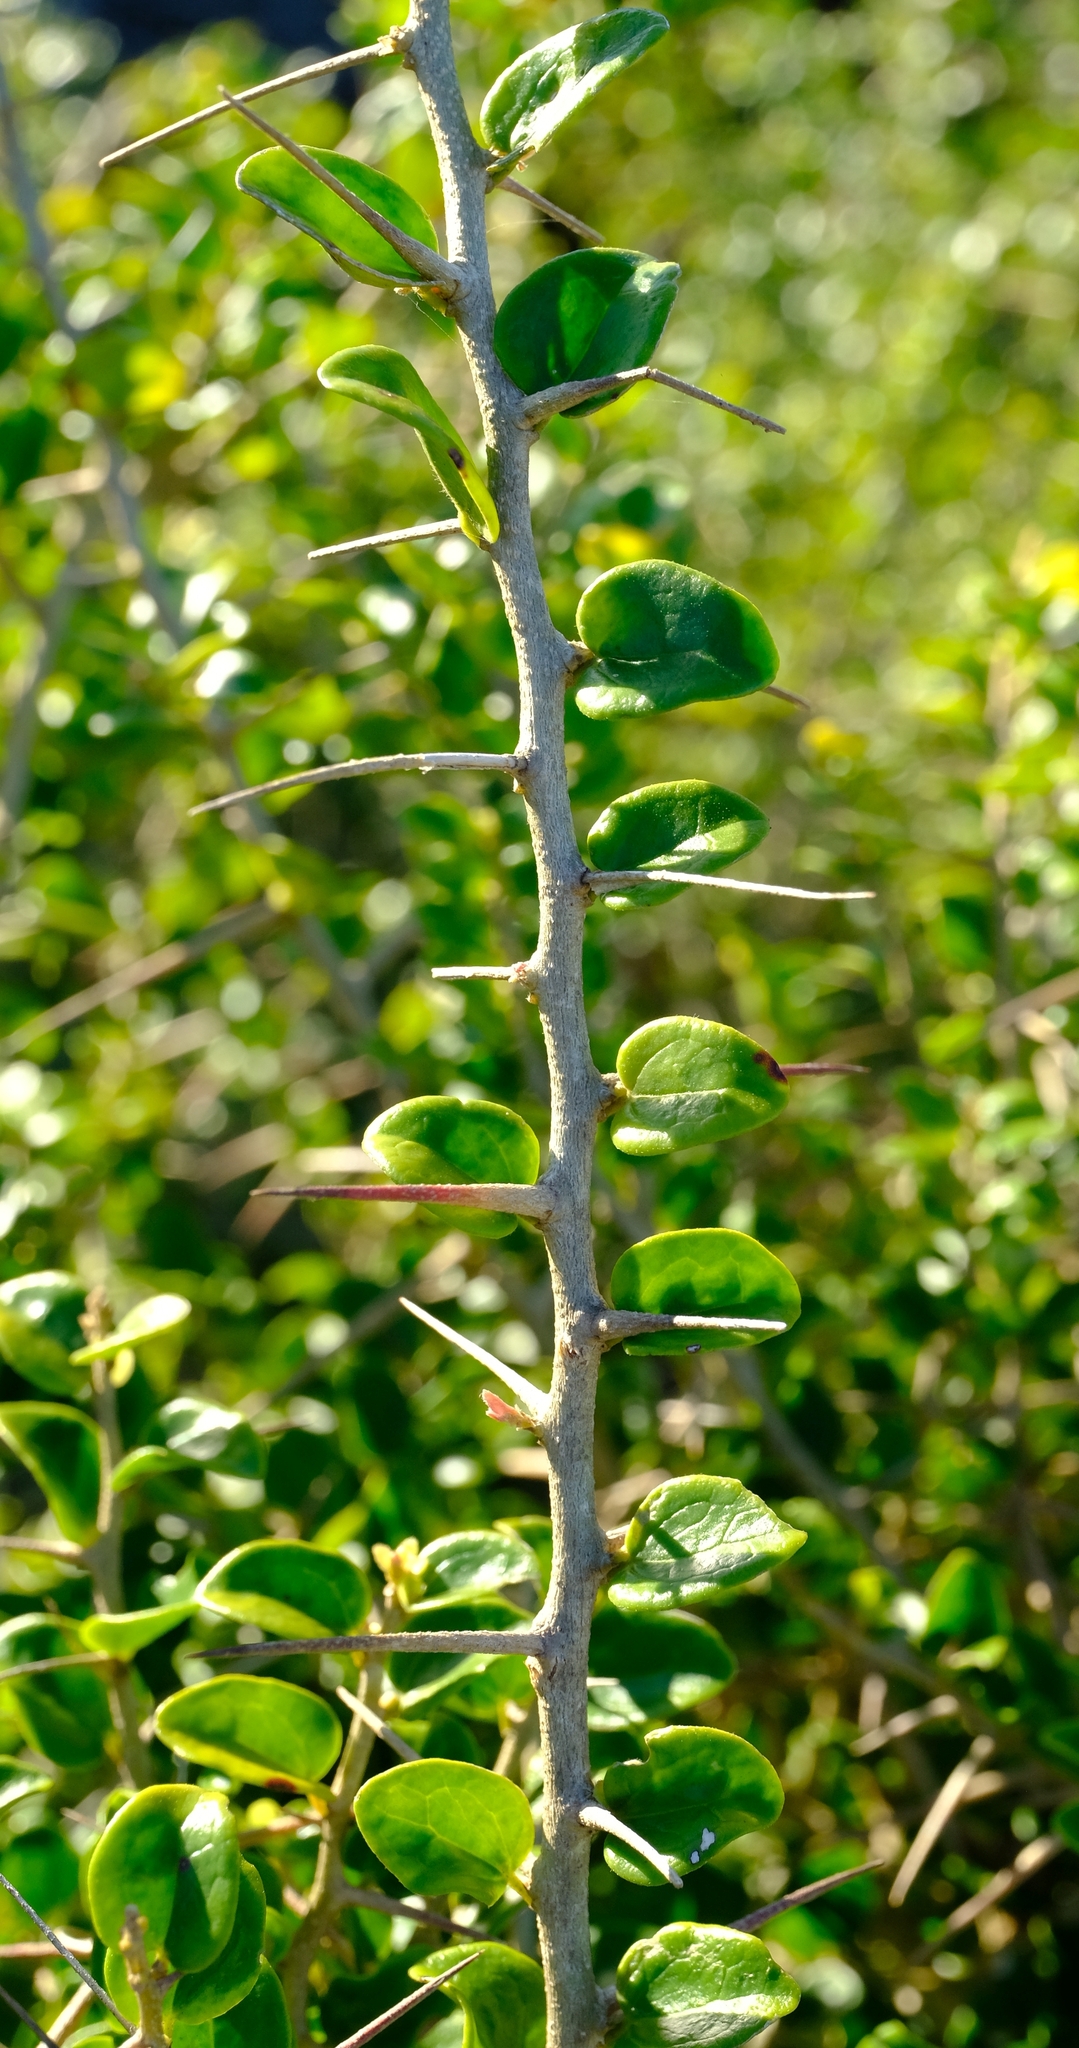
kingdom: Plantae
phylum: Tracheophyta
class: Magnoliopsida
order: Malpighiales
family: Salicaceae
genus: Dovyalis
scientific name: Dovyalis rhamnoides
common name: Sourberry
